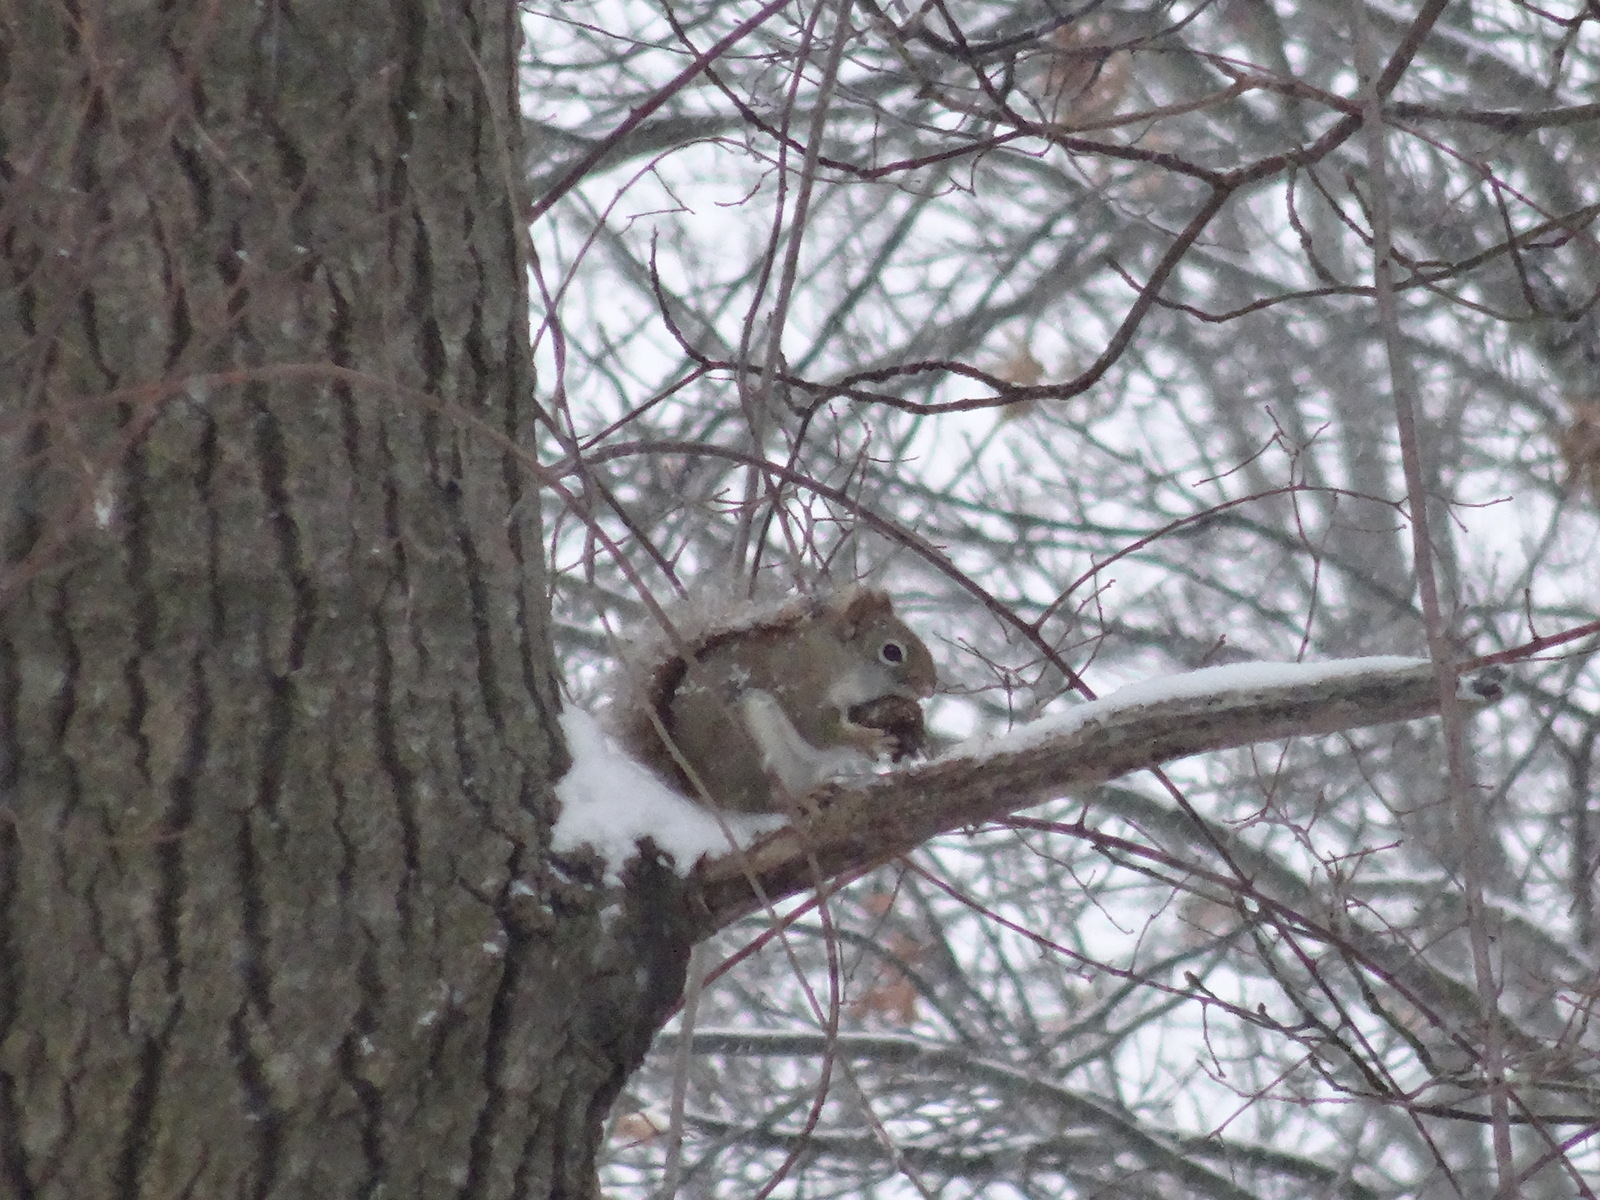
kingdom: Animalia
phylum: Chordata
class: Mammalia
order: Rodentia
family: Sciuridae
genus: Tamiasciurus
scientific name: Tamiasciurus hudsonicus
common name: Red squirrel
